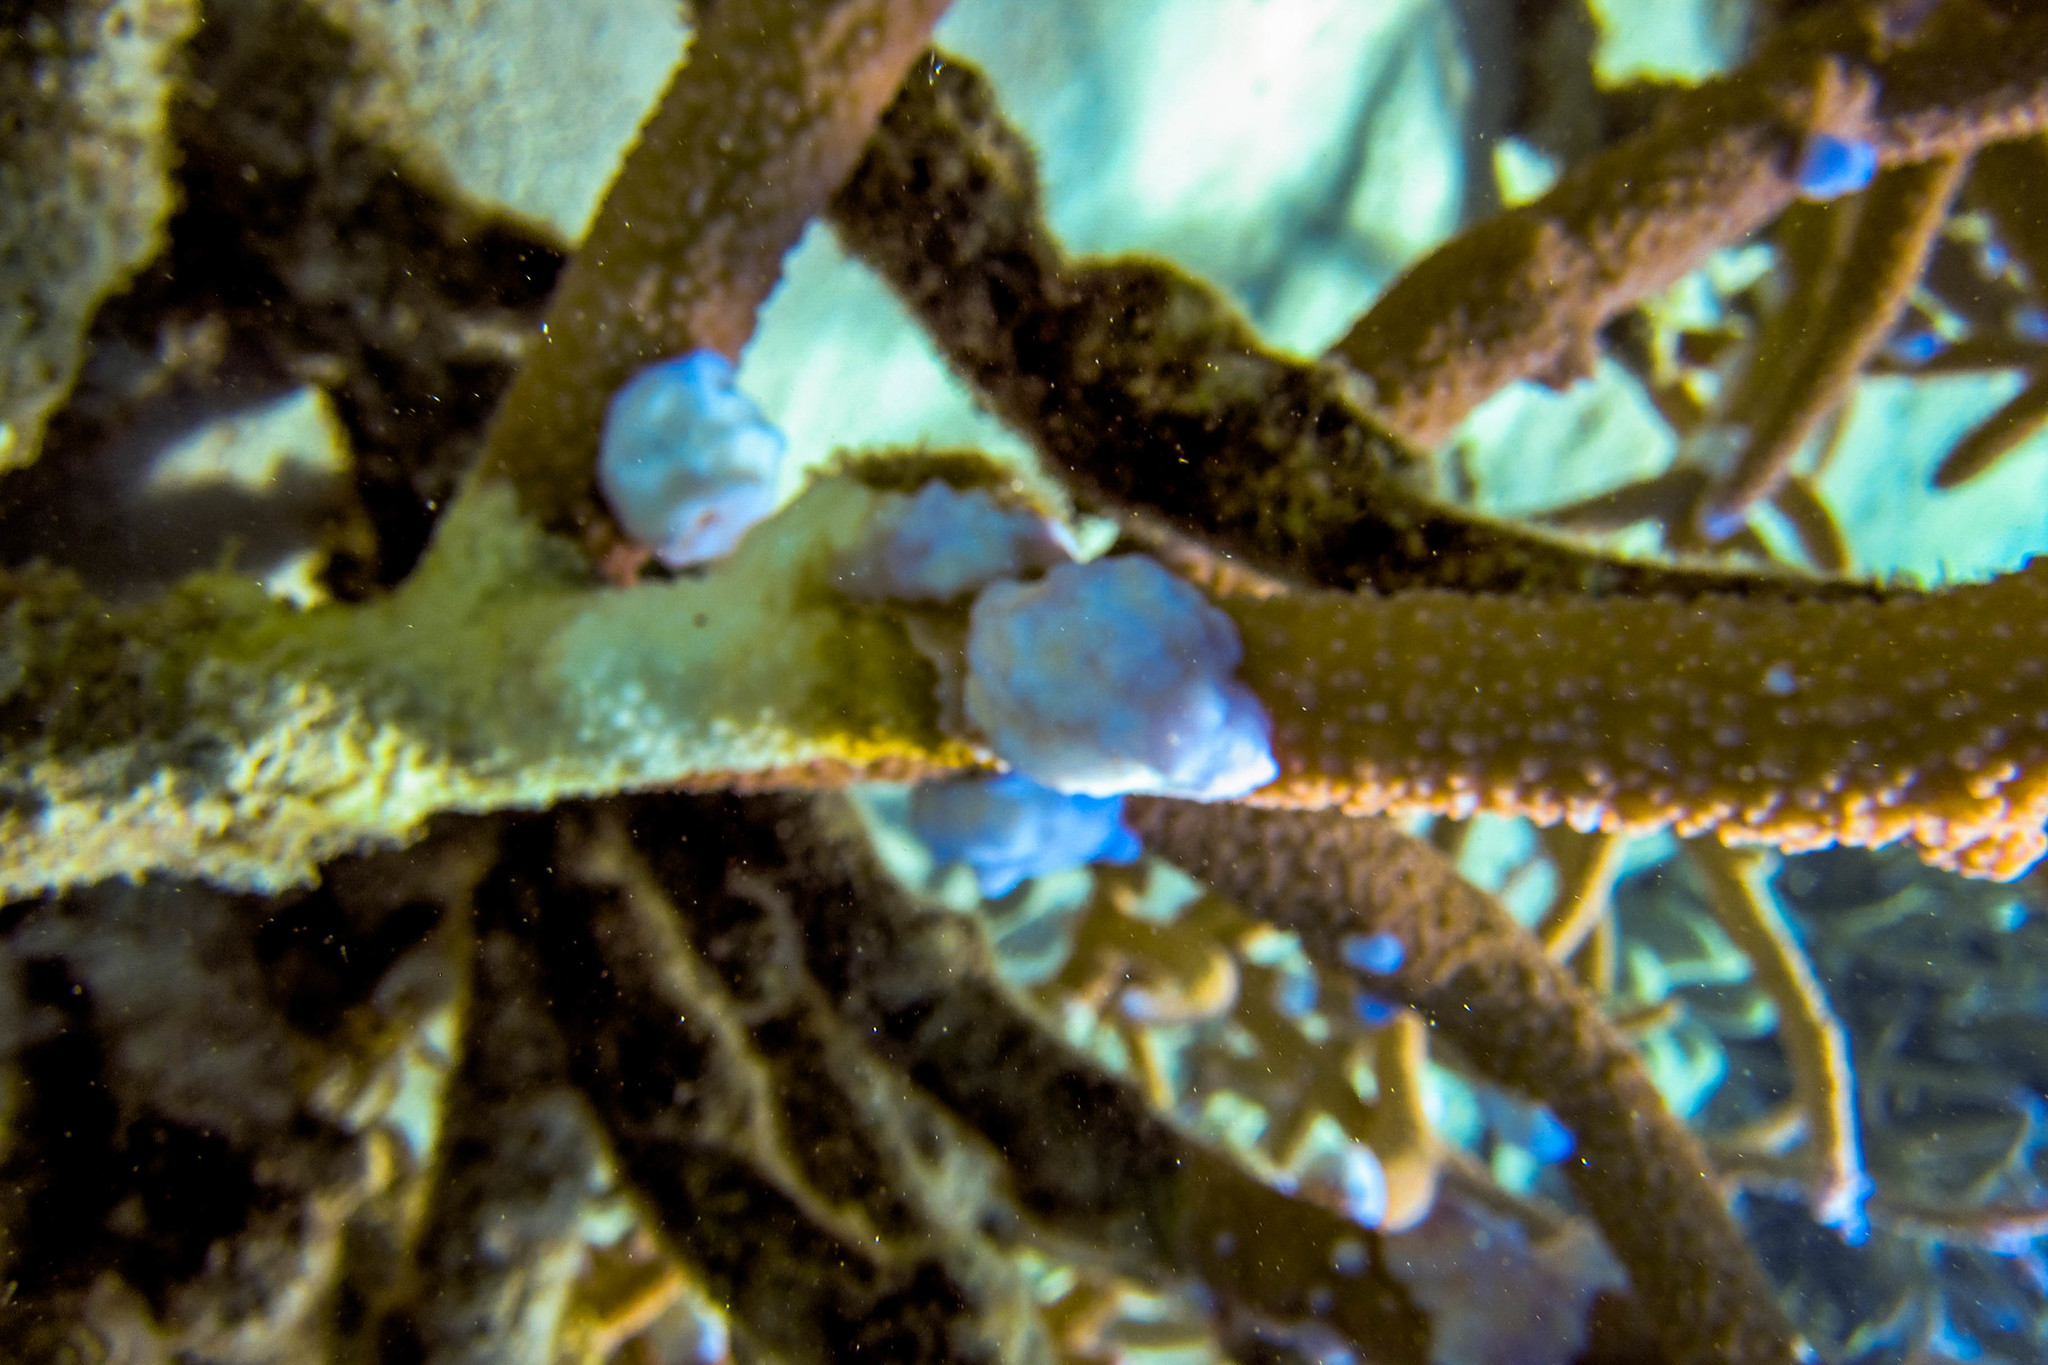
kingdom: Animalia
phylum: Cnidaria
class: Anthozoa
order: Scleractinia
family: Acroporidae
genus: Acropora
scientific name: Acropora muricata
